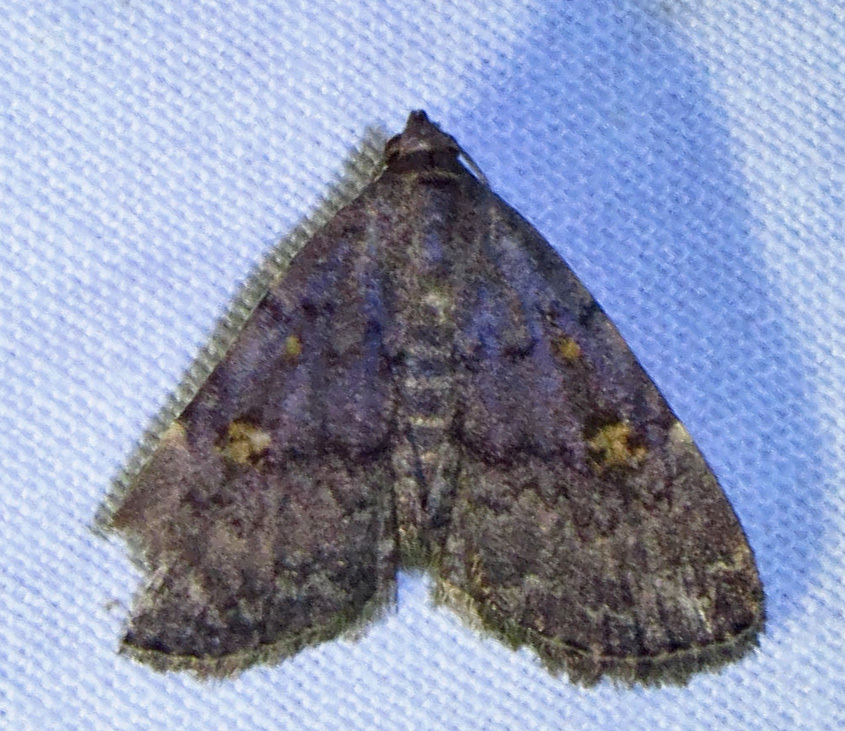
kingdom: Animalia
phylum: Arthropoda
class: Insecta
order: Lepidoptera
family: Erebidae
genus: Idia
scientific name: Idia aemula
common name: Common idia moth
